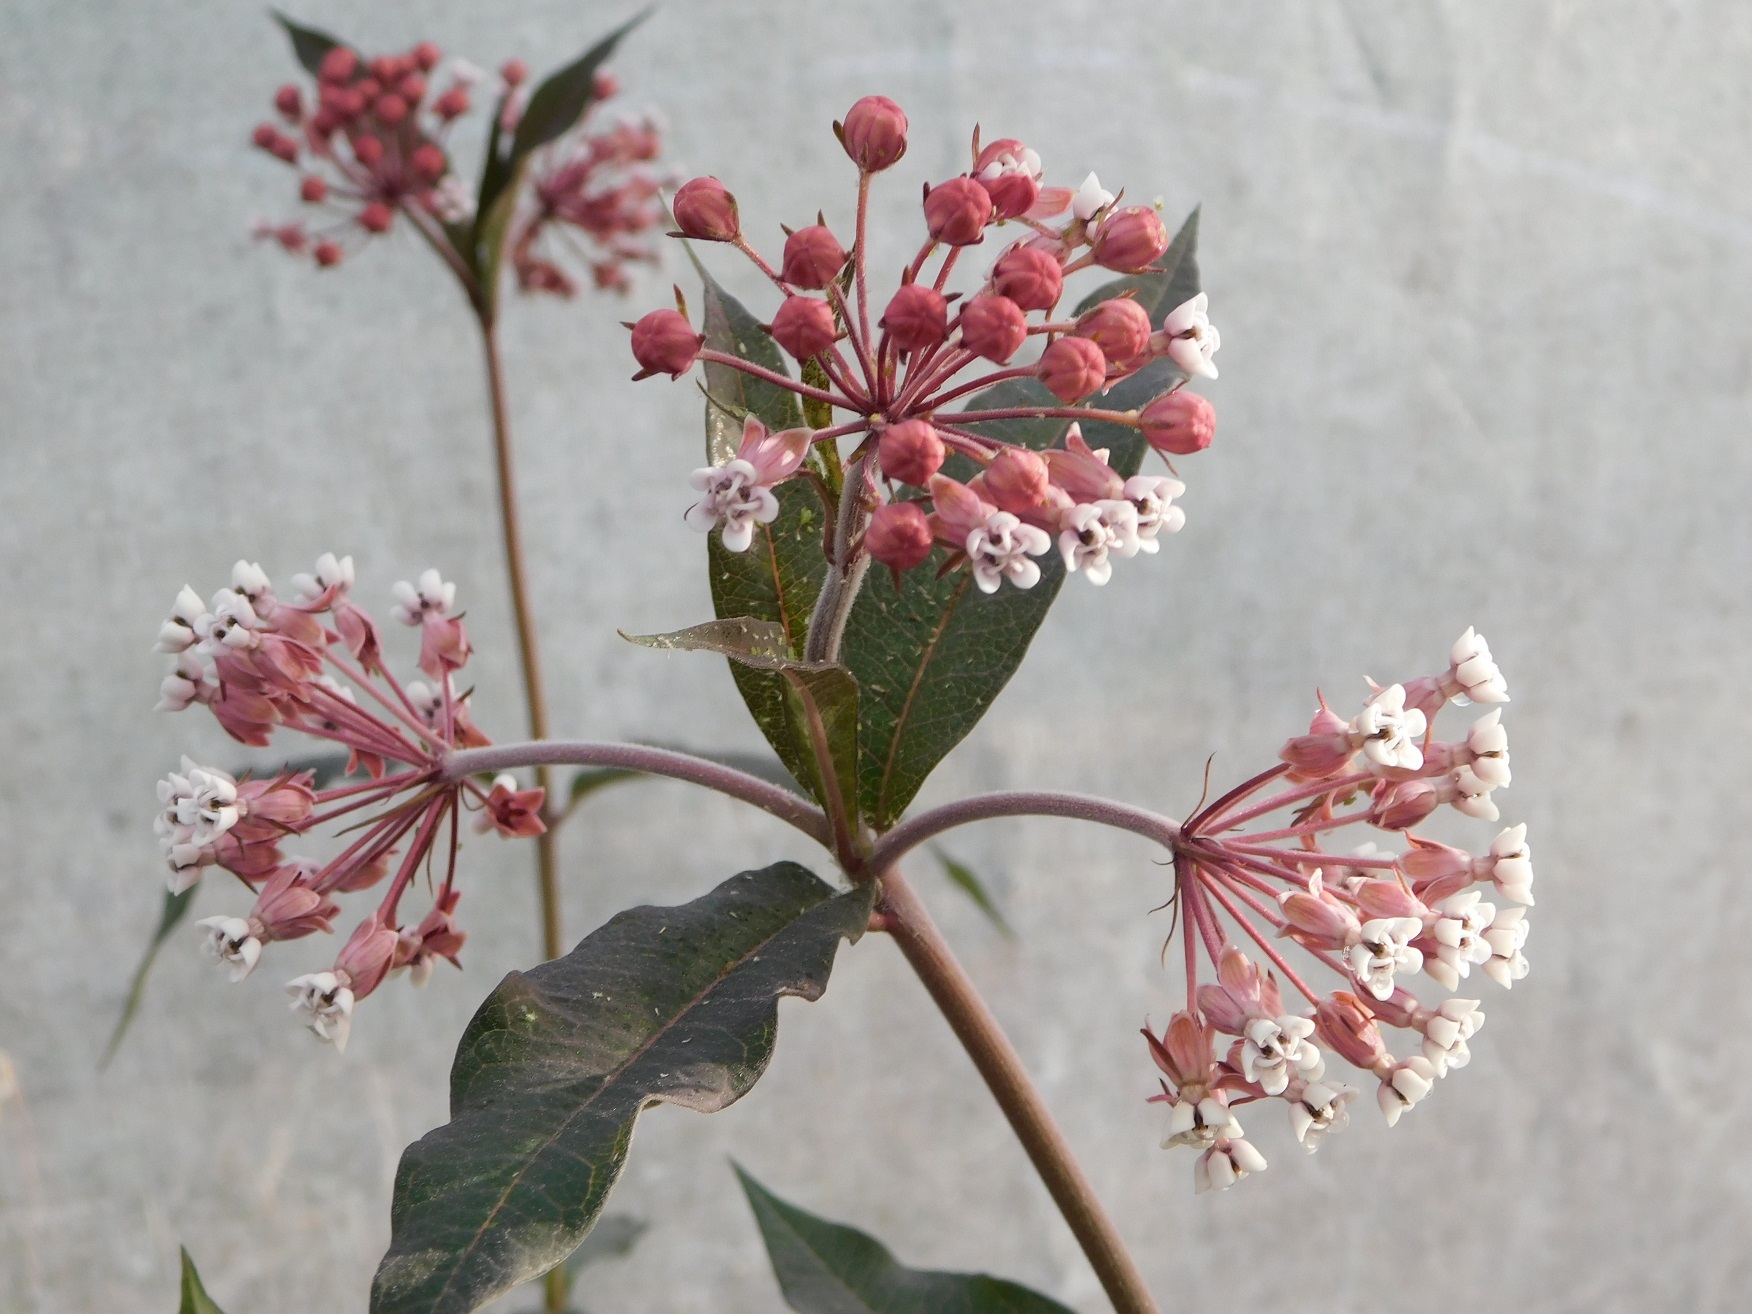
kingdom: Plantae
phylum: Tracheophyta
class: Magnoliopsida
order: Gentianales
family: Apocynaceae
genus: Asclepias
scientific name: Asclepias pellucida
